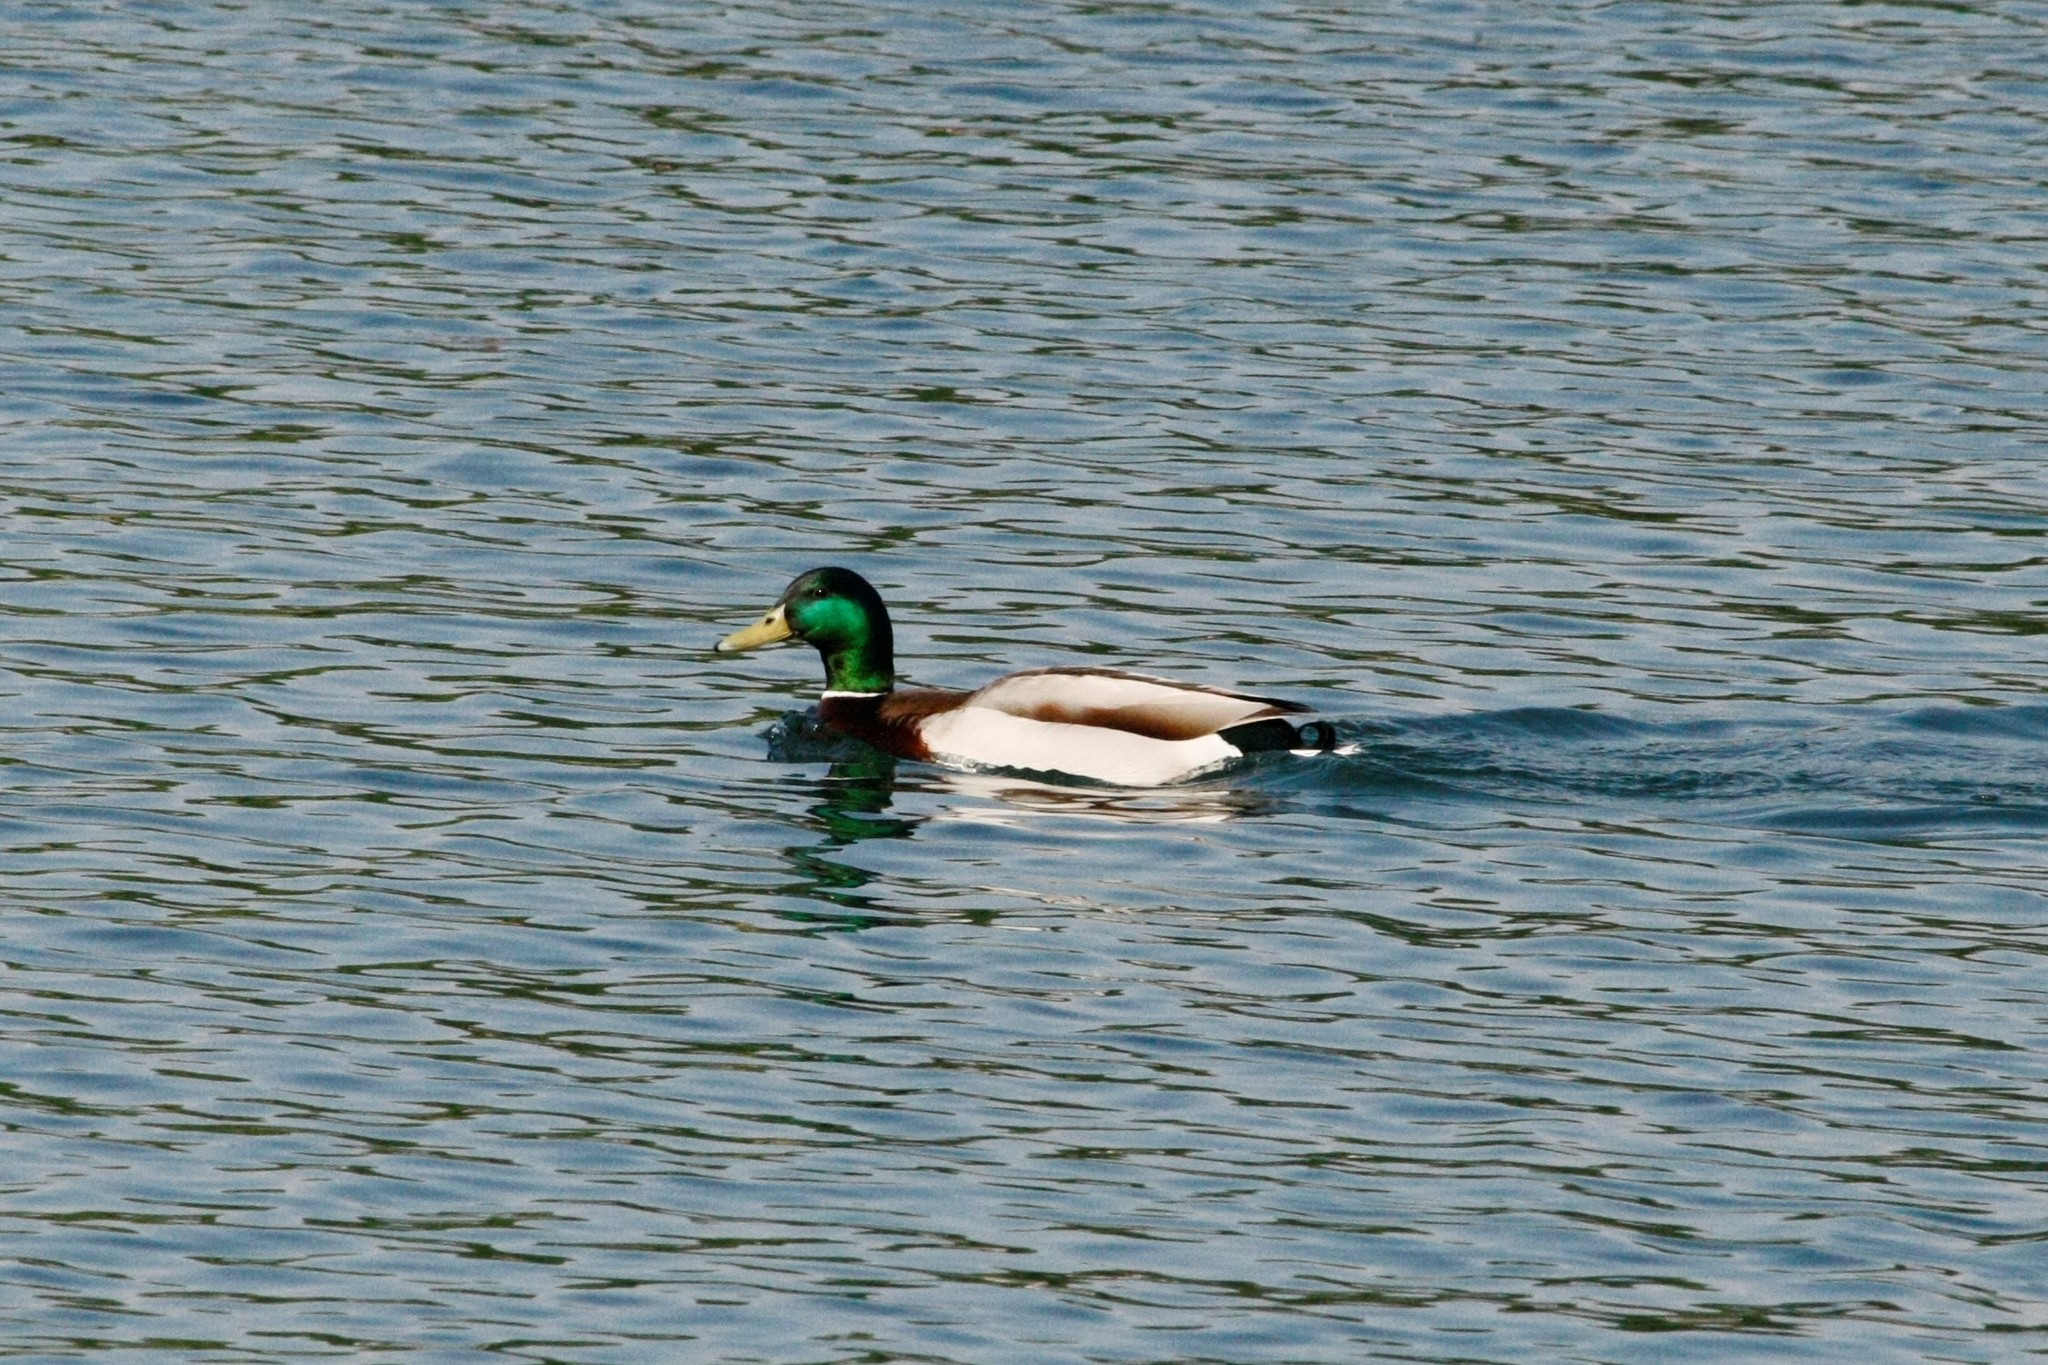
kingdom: Animalia
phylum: Chordata
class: Aves
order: Anseriformes
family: Anatidae
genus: Anas
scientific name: Anas platyrhynchos
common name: Mallard
